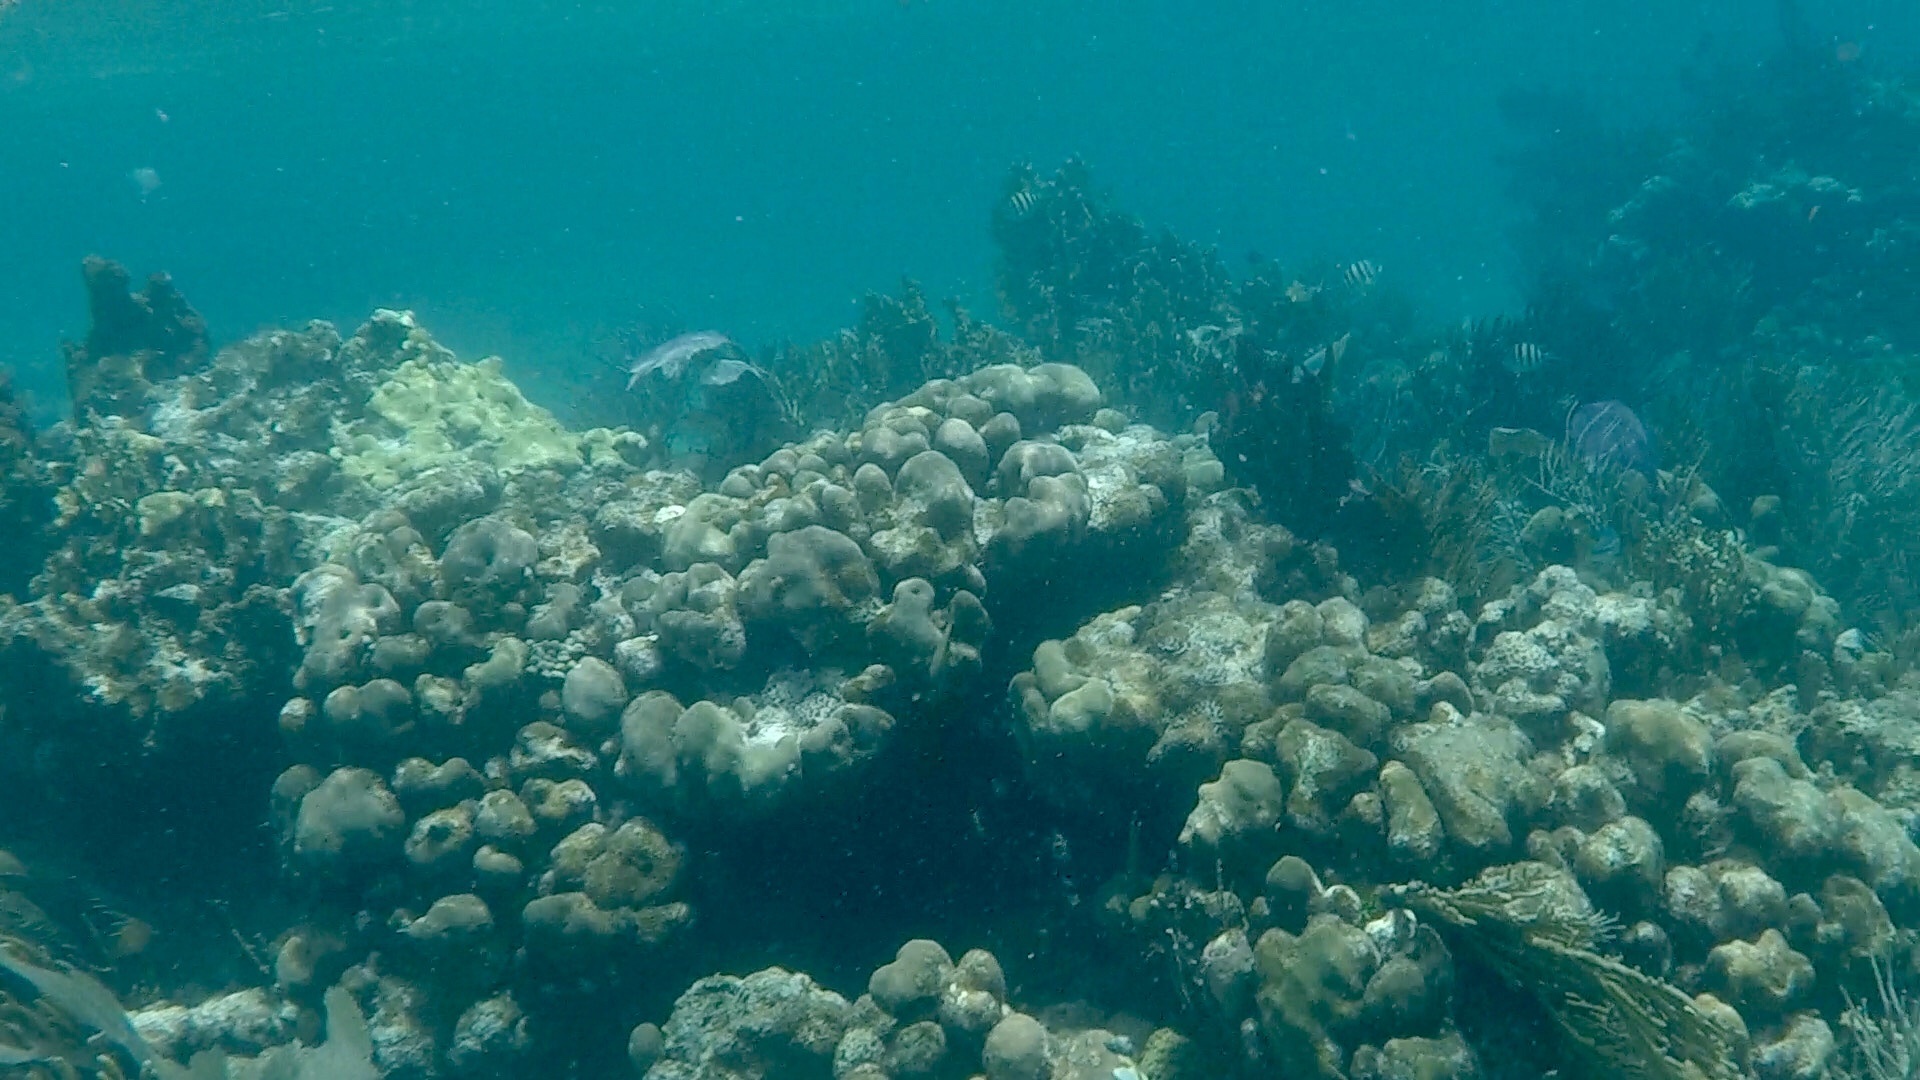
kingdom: Animalia
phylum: Cnidaria
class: Anthozoa
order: Scleractinia
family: Merulinidae
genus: Orbicella
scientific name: Orbicella annularis
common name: Boulder star coral
